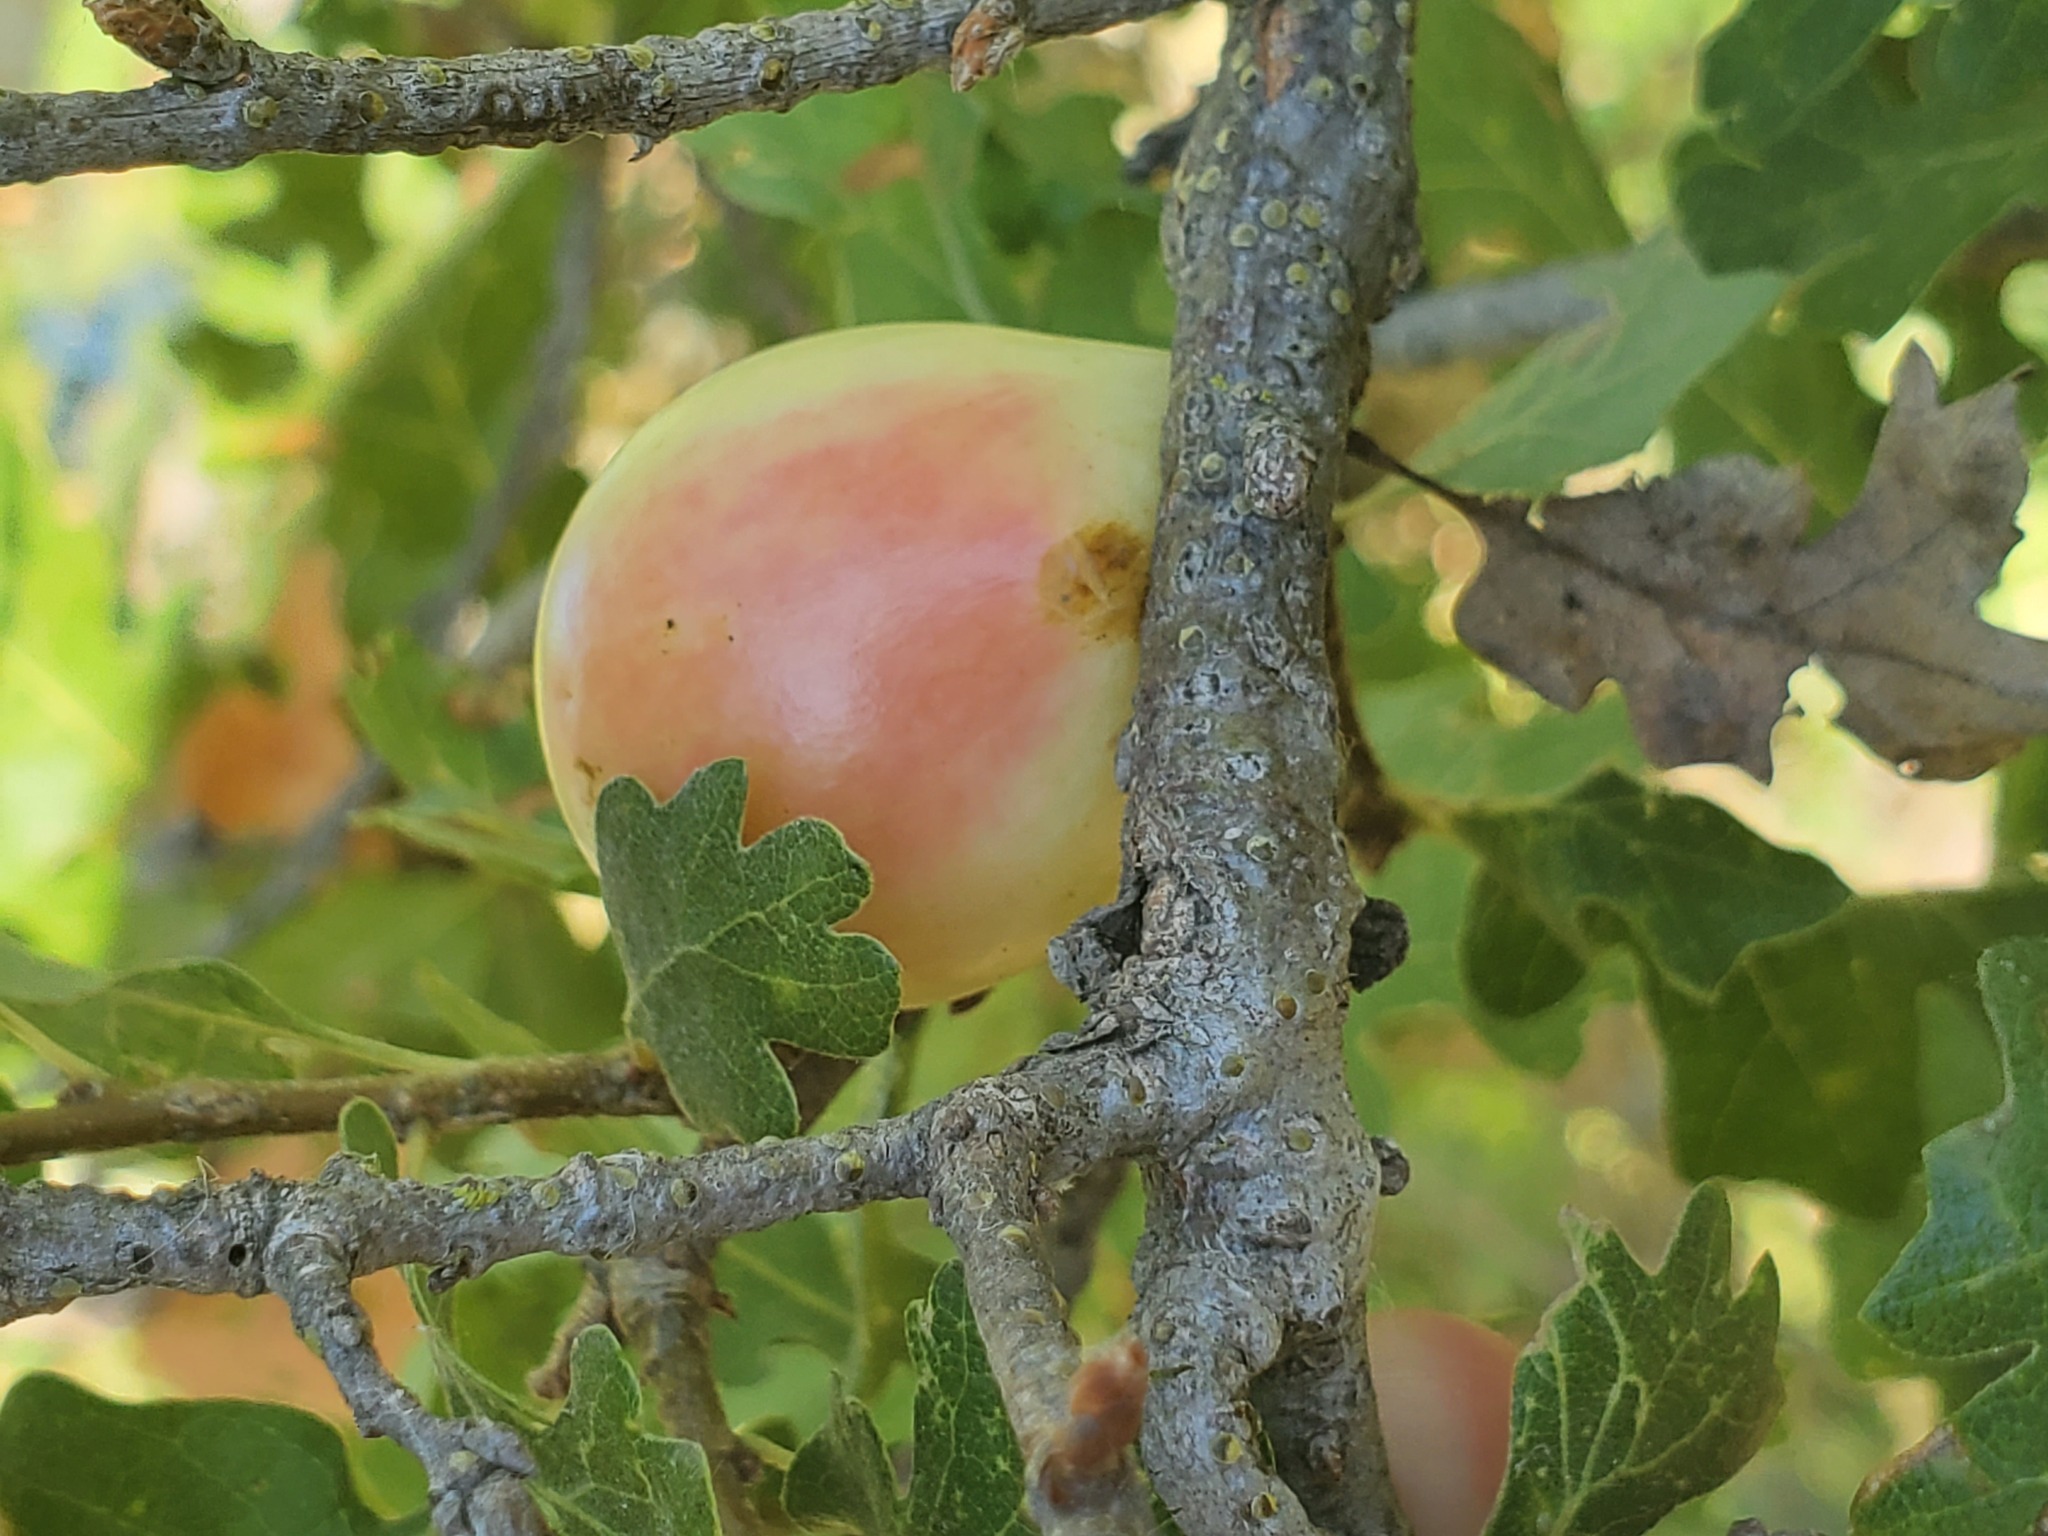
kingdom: Animalia
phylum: Arthropoda
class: Insecta
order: Hymenoptera
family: Cynipidae
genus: Andricus
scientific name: Andricus quercuscalifornicus
